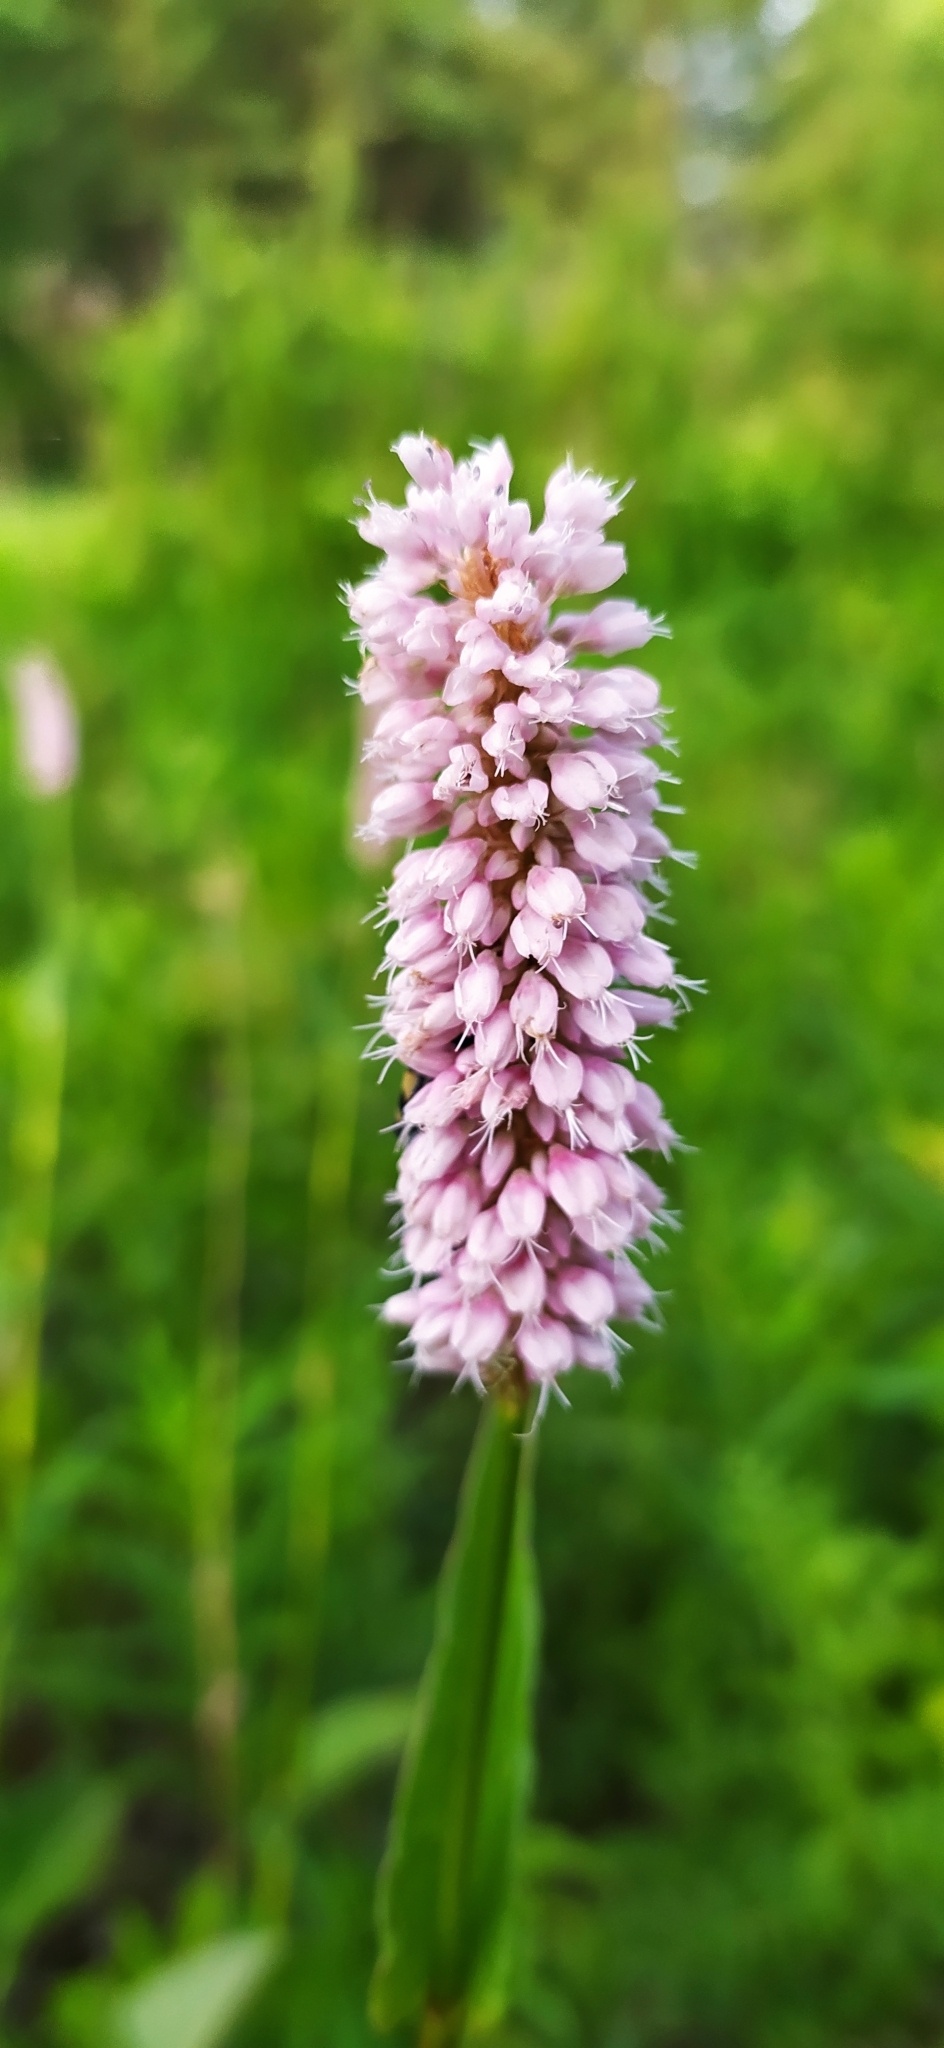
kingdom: Plantae
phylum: Tracheophyta
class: Magnoliopsida
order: Caryophyllales
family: Polygonaceae
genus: Bistorta
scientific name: Bistorta officinalis
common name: Common bistort
